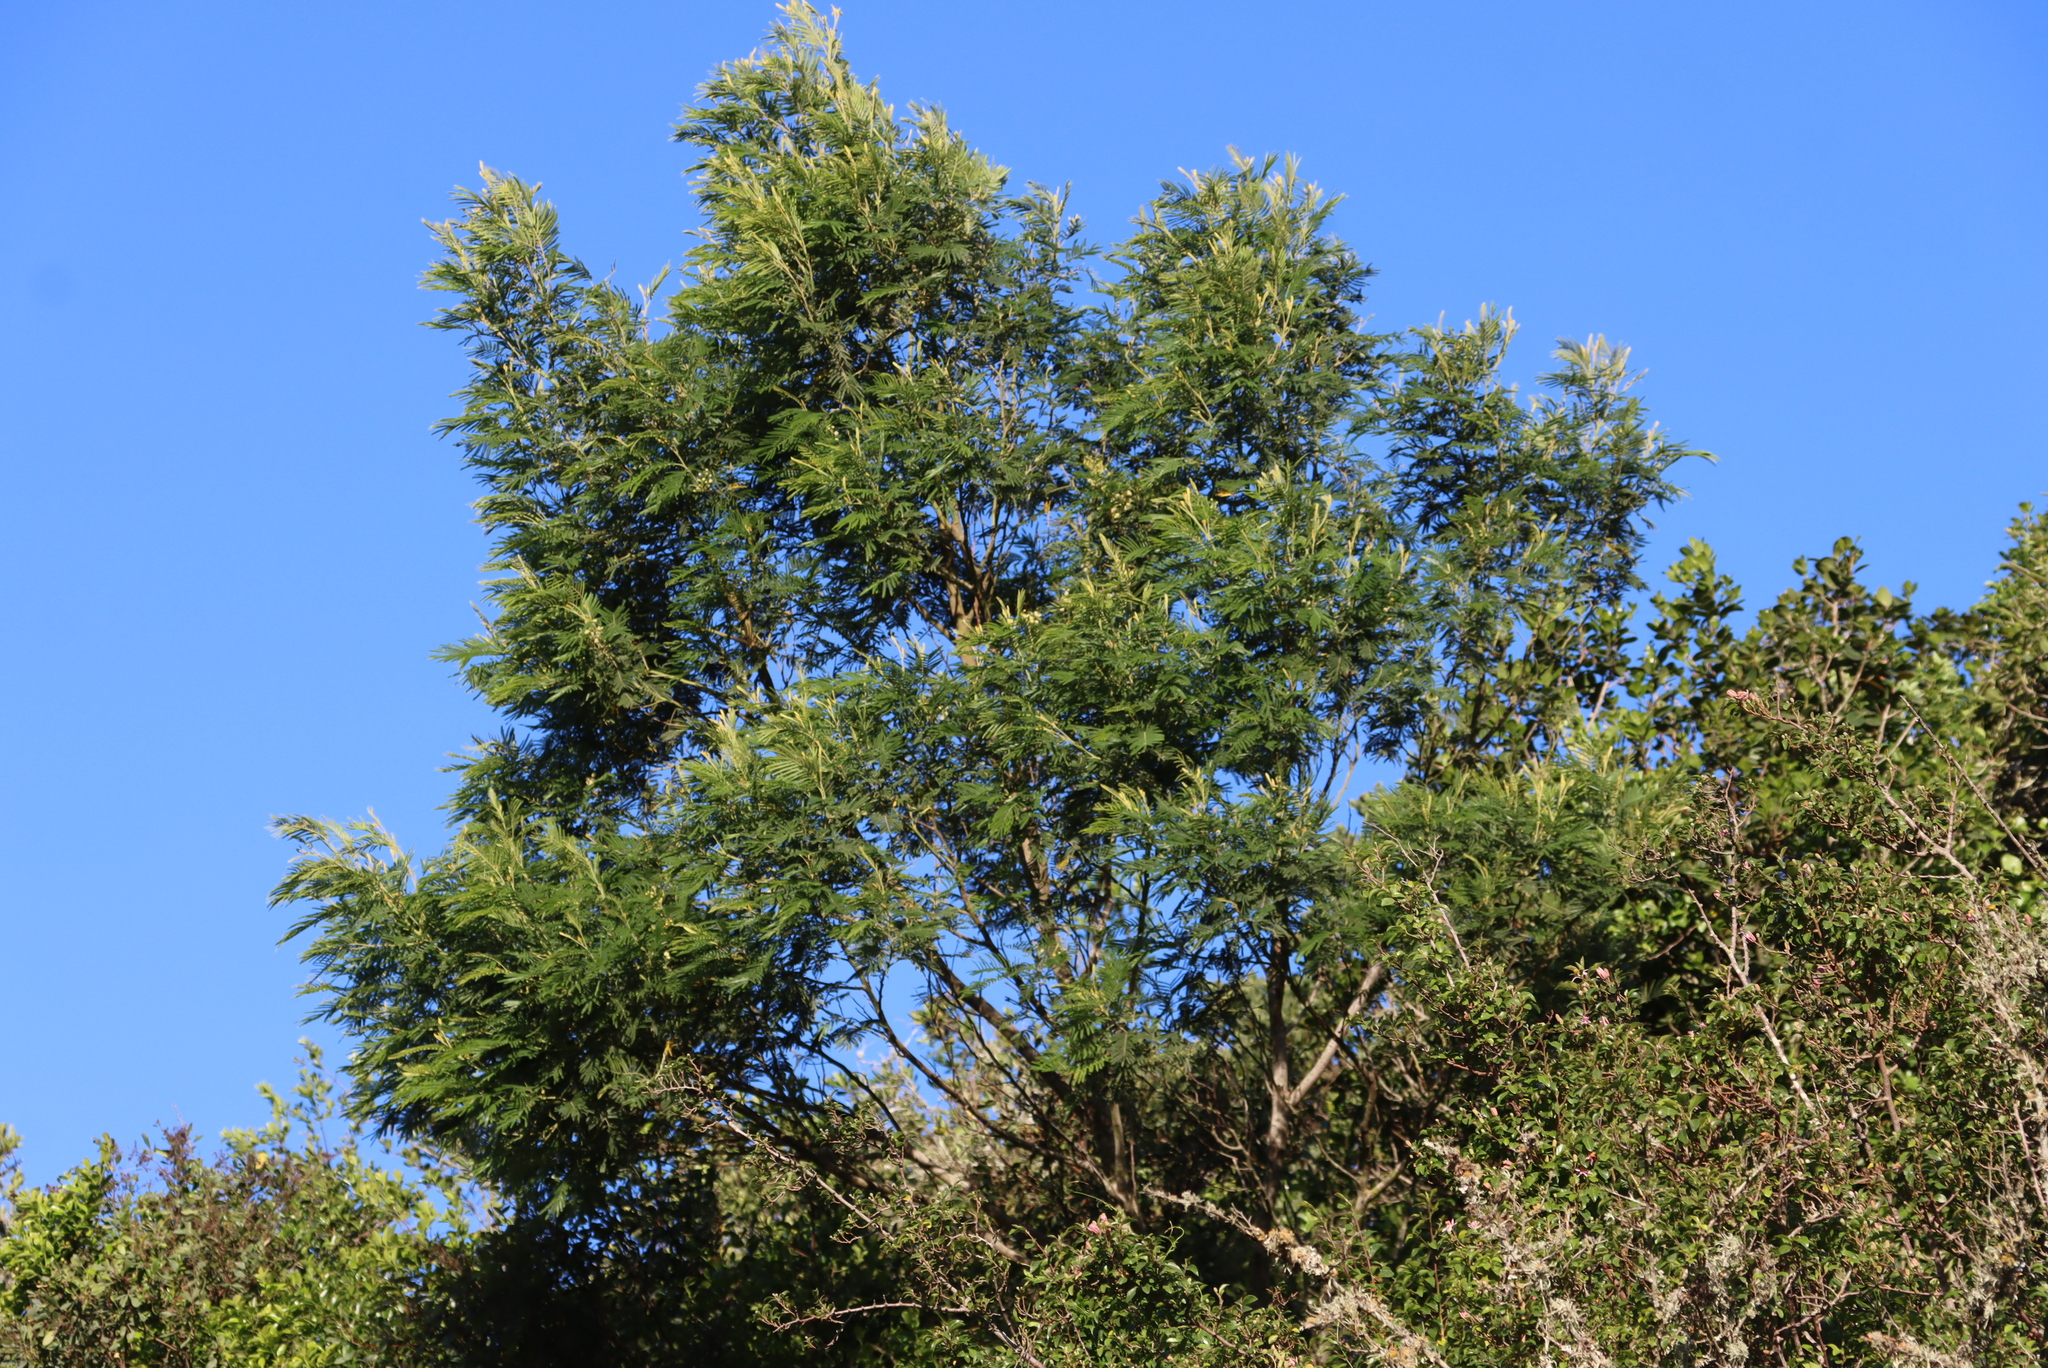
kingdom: Plantae
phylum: Tracheophyta
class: Magnoliopsida
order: Fabales
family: Fabaceae
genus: Acacia
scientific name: Acacia mearnsii
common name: Black wattle
